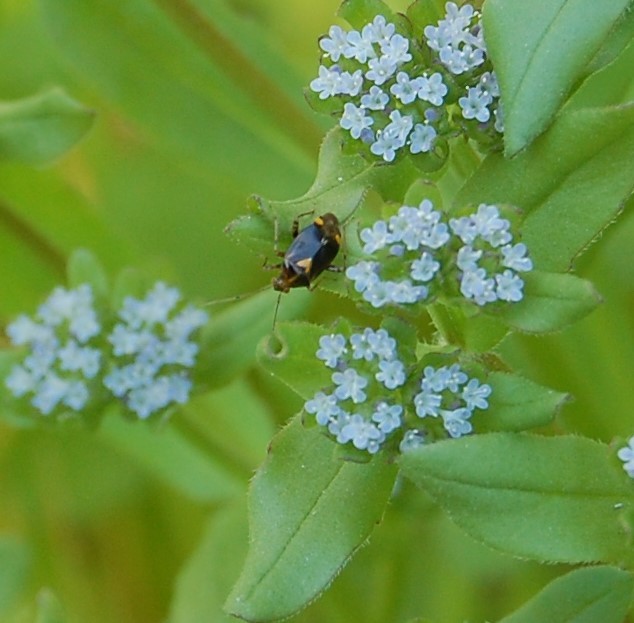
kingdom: Animalia
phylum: Arthropoda
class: Insecta
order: Hemiptera
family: Miridae
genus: Liocoris
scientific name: Liocoris tripustulatus
